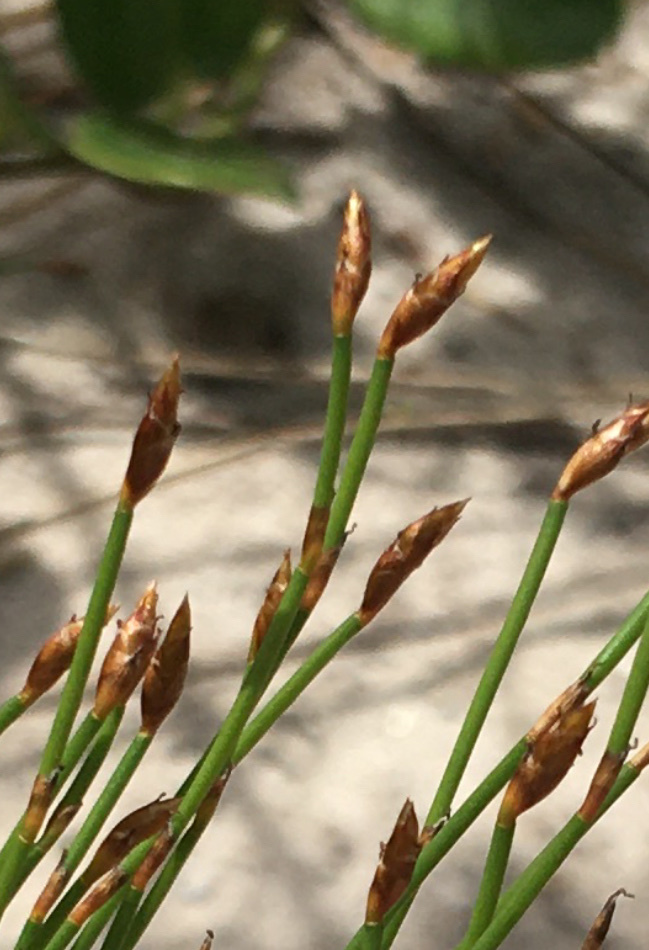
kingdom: Plantae
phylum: Tracheophyta
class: Liliopsida
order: Poales
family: Restionaceae
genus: Restio
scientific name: Restio eleocharis
